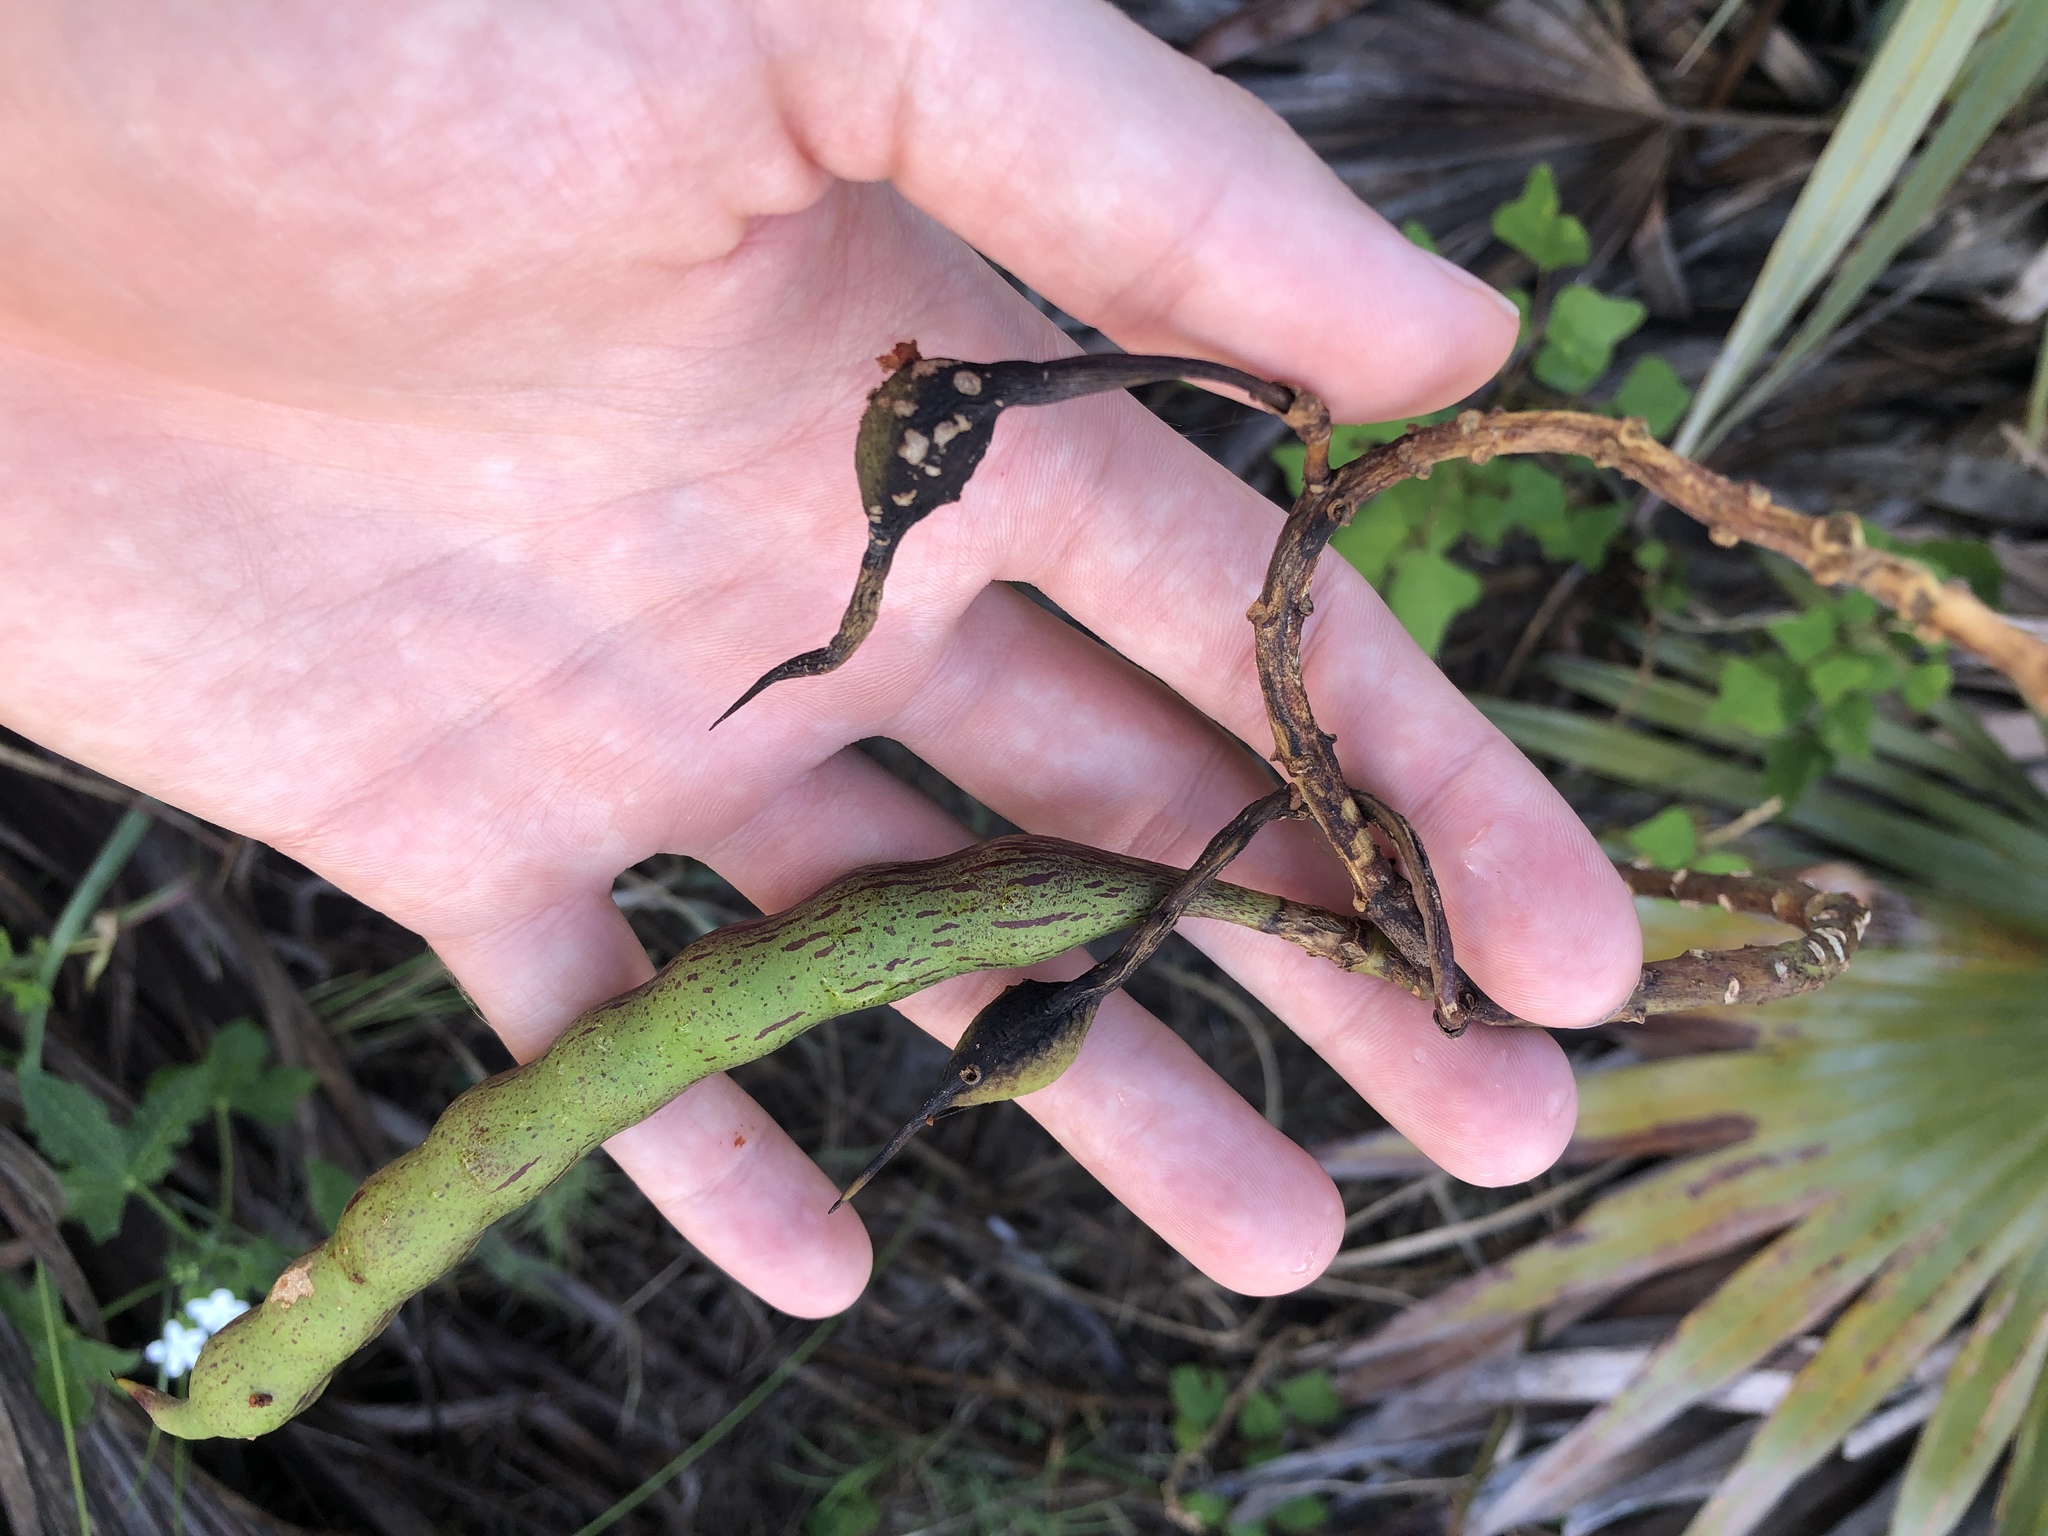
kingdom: Plantae
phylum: Tracheophyta
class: Magnoliopsida
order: Fabales
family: Fabaceae
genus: Erythrina
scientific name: Erythrina herbacea
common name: Coral-bean
